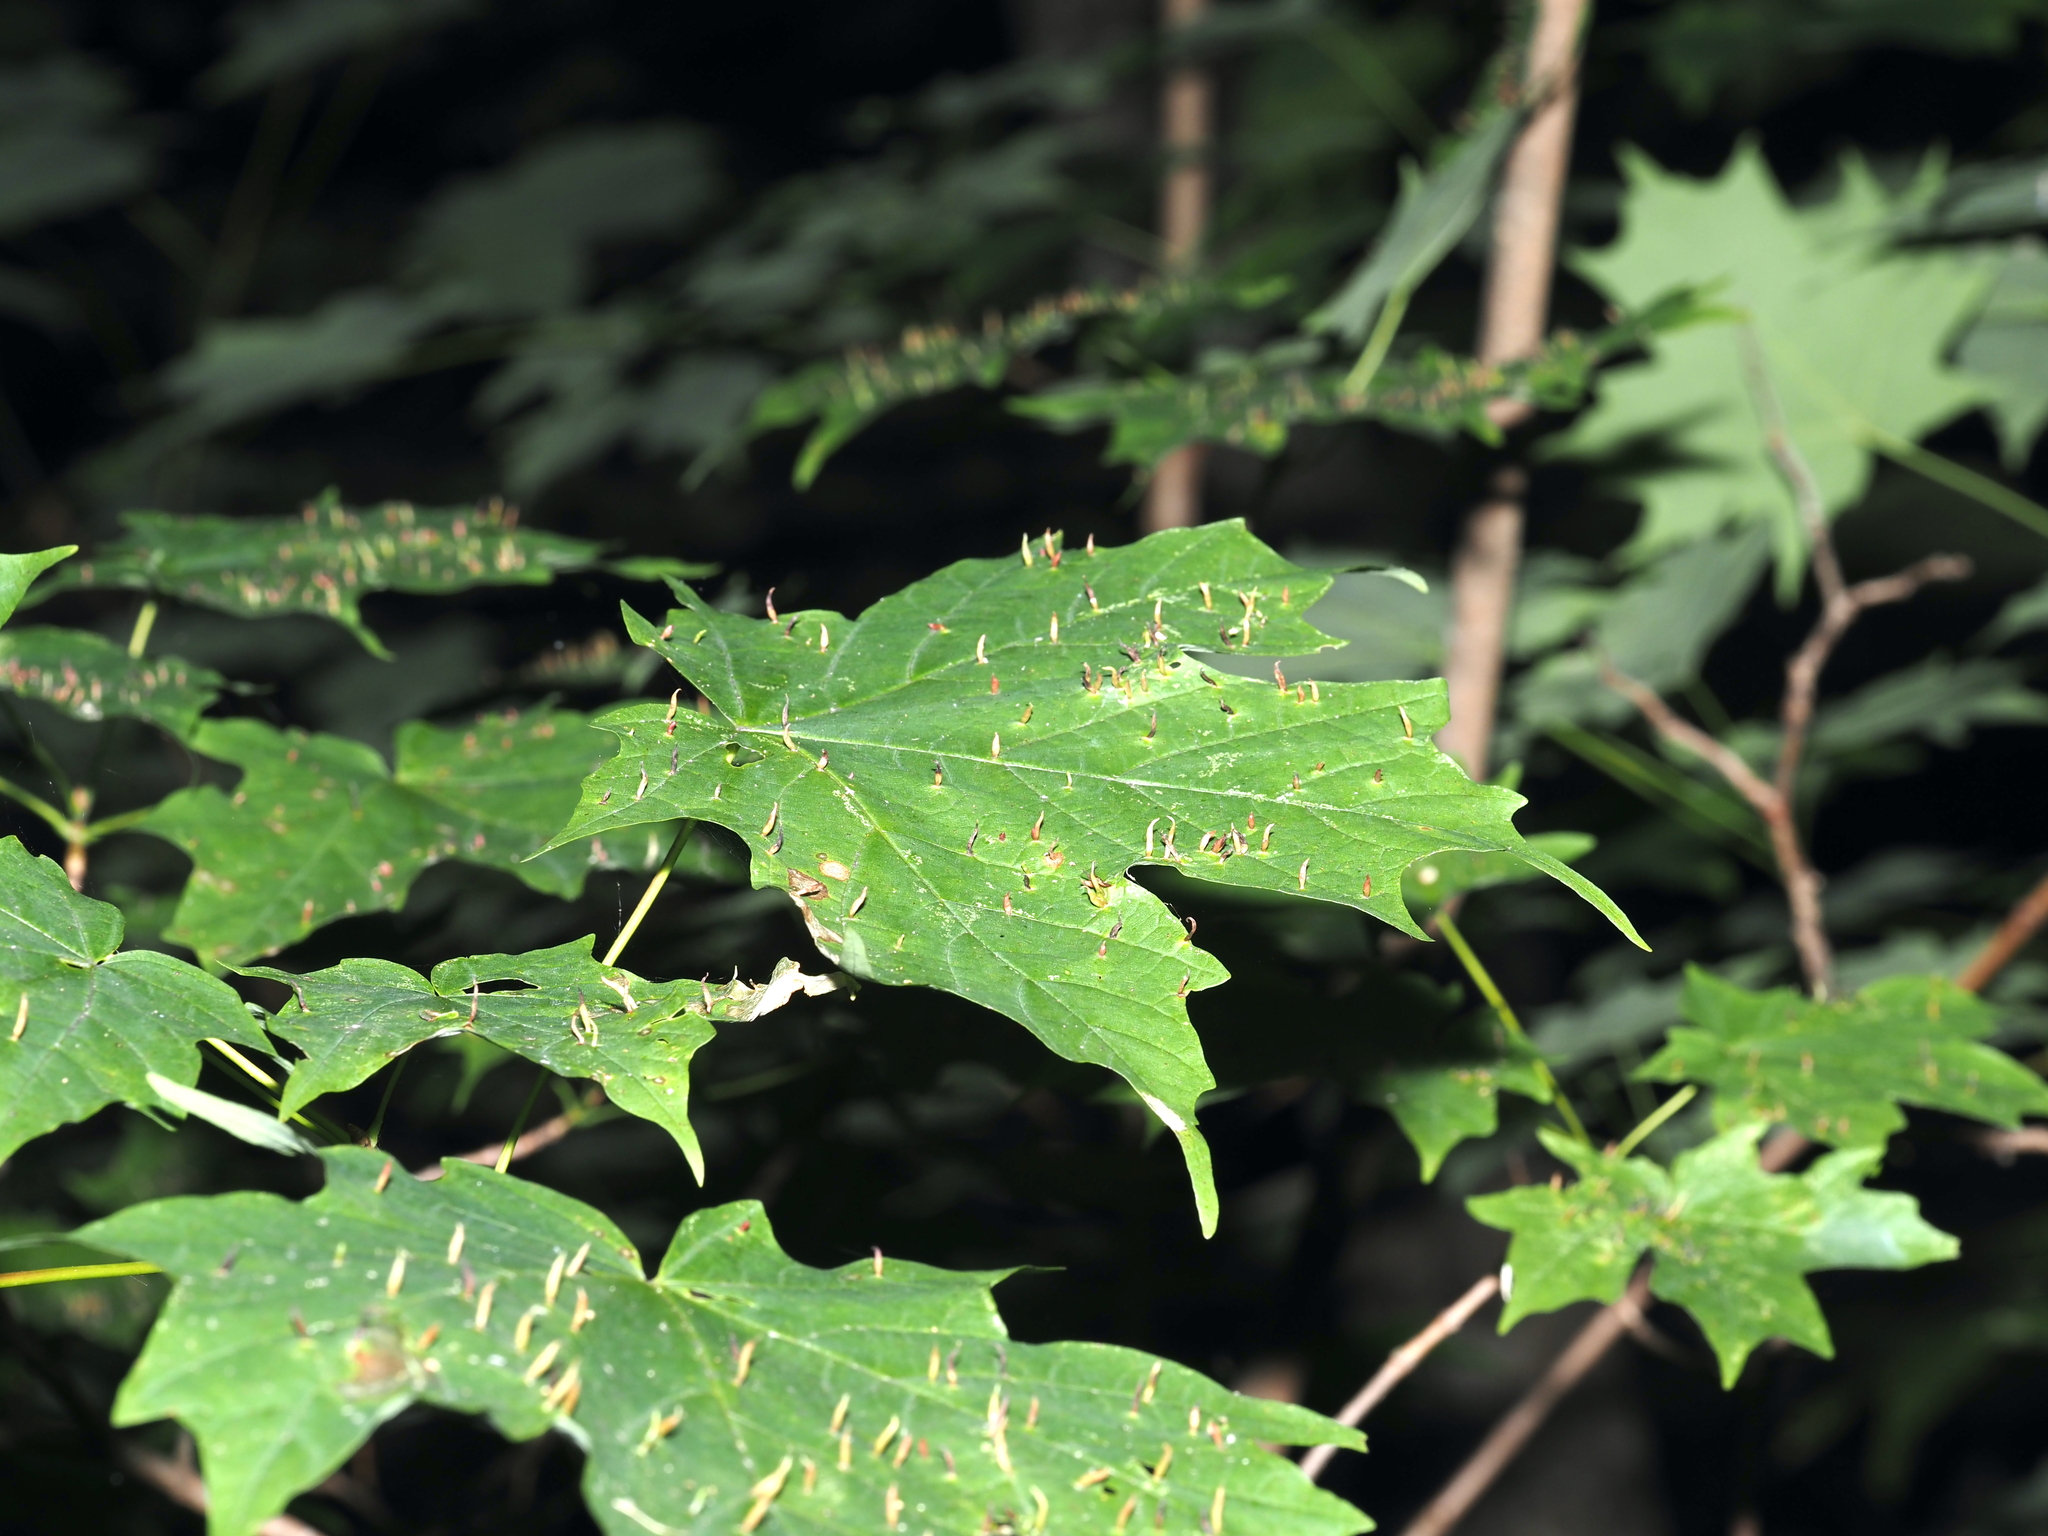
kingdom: Animalia
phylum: Arthropoda
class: Arachnida
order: Trombidiformes
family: Eriophyidae
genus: Vasates
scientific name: Vasates aceriscrumena
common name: Maple spindle gall mite
